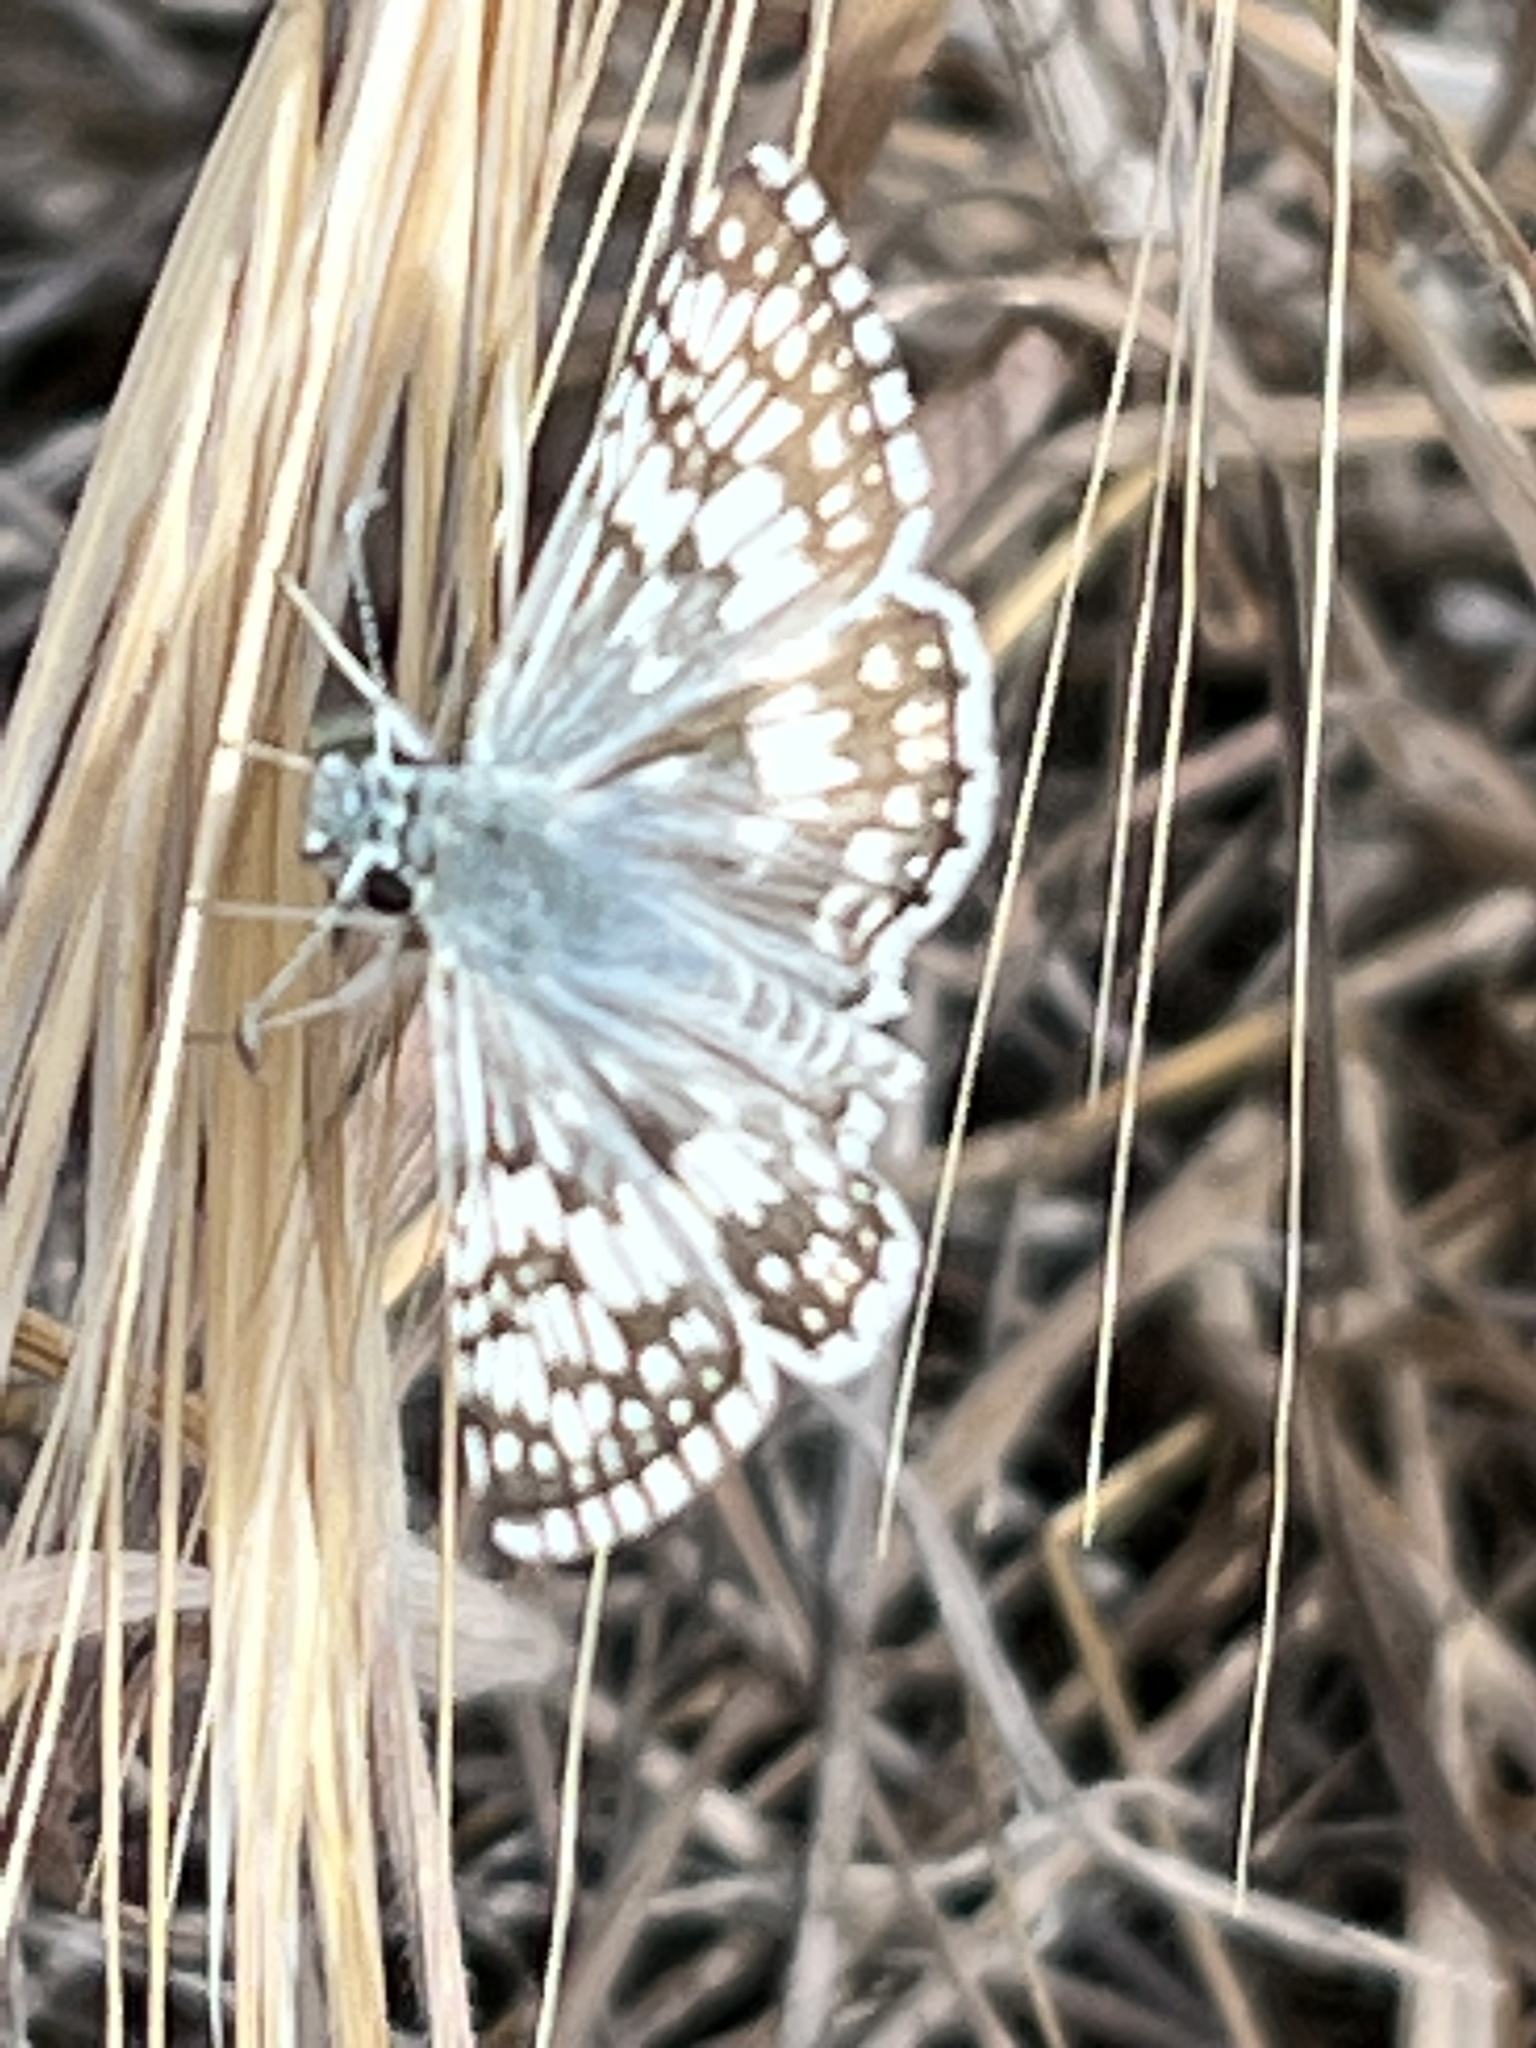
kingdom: Animalia
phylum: Arthropoda
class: Insecta
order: Lepidoptera
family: Hesperiidae
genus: Burnsius
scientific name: Burnsius albezens
